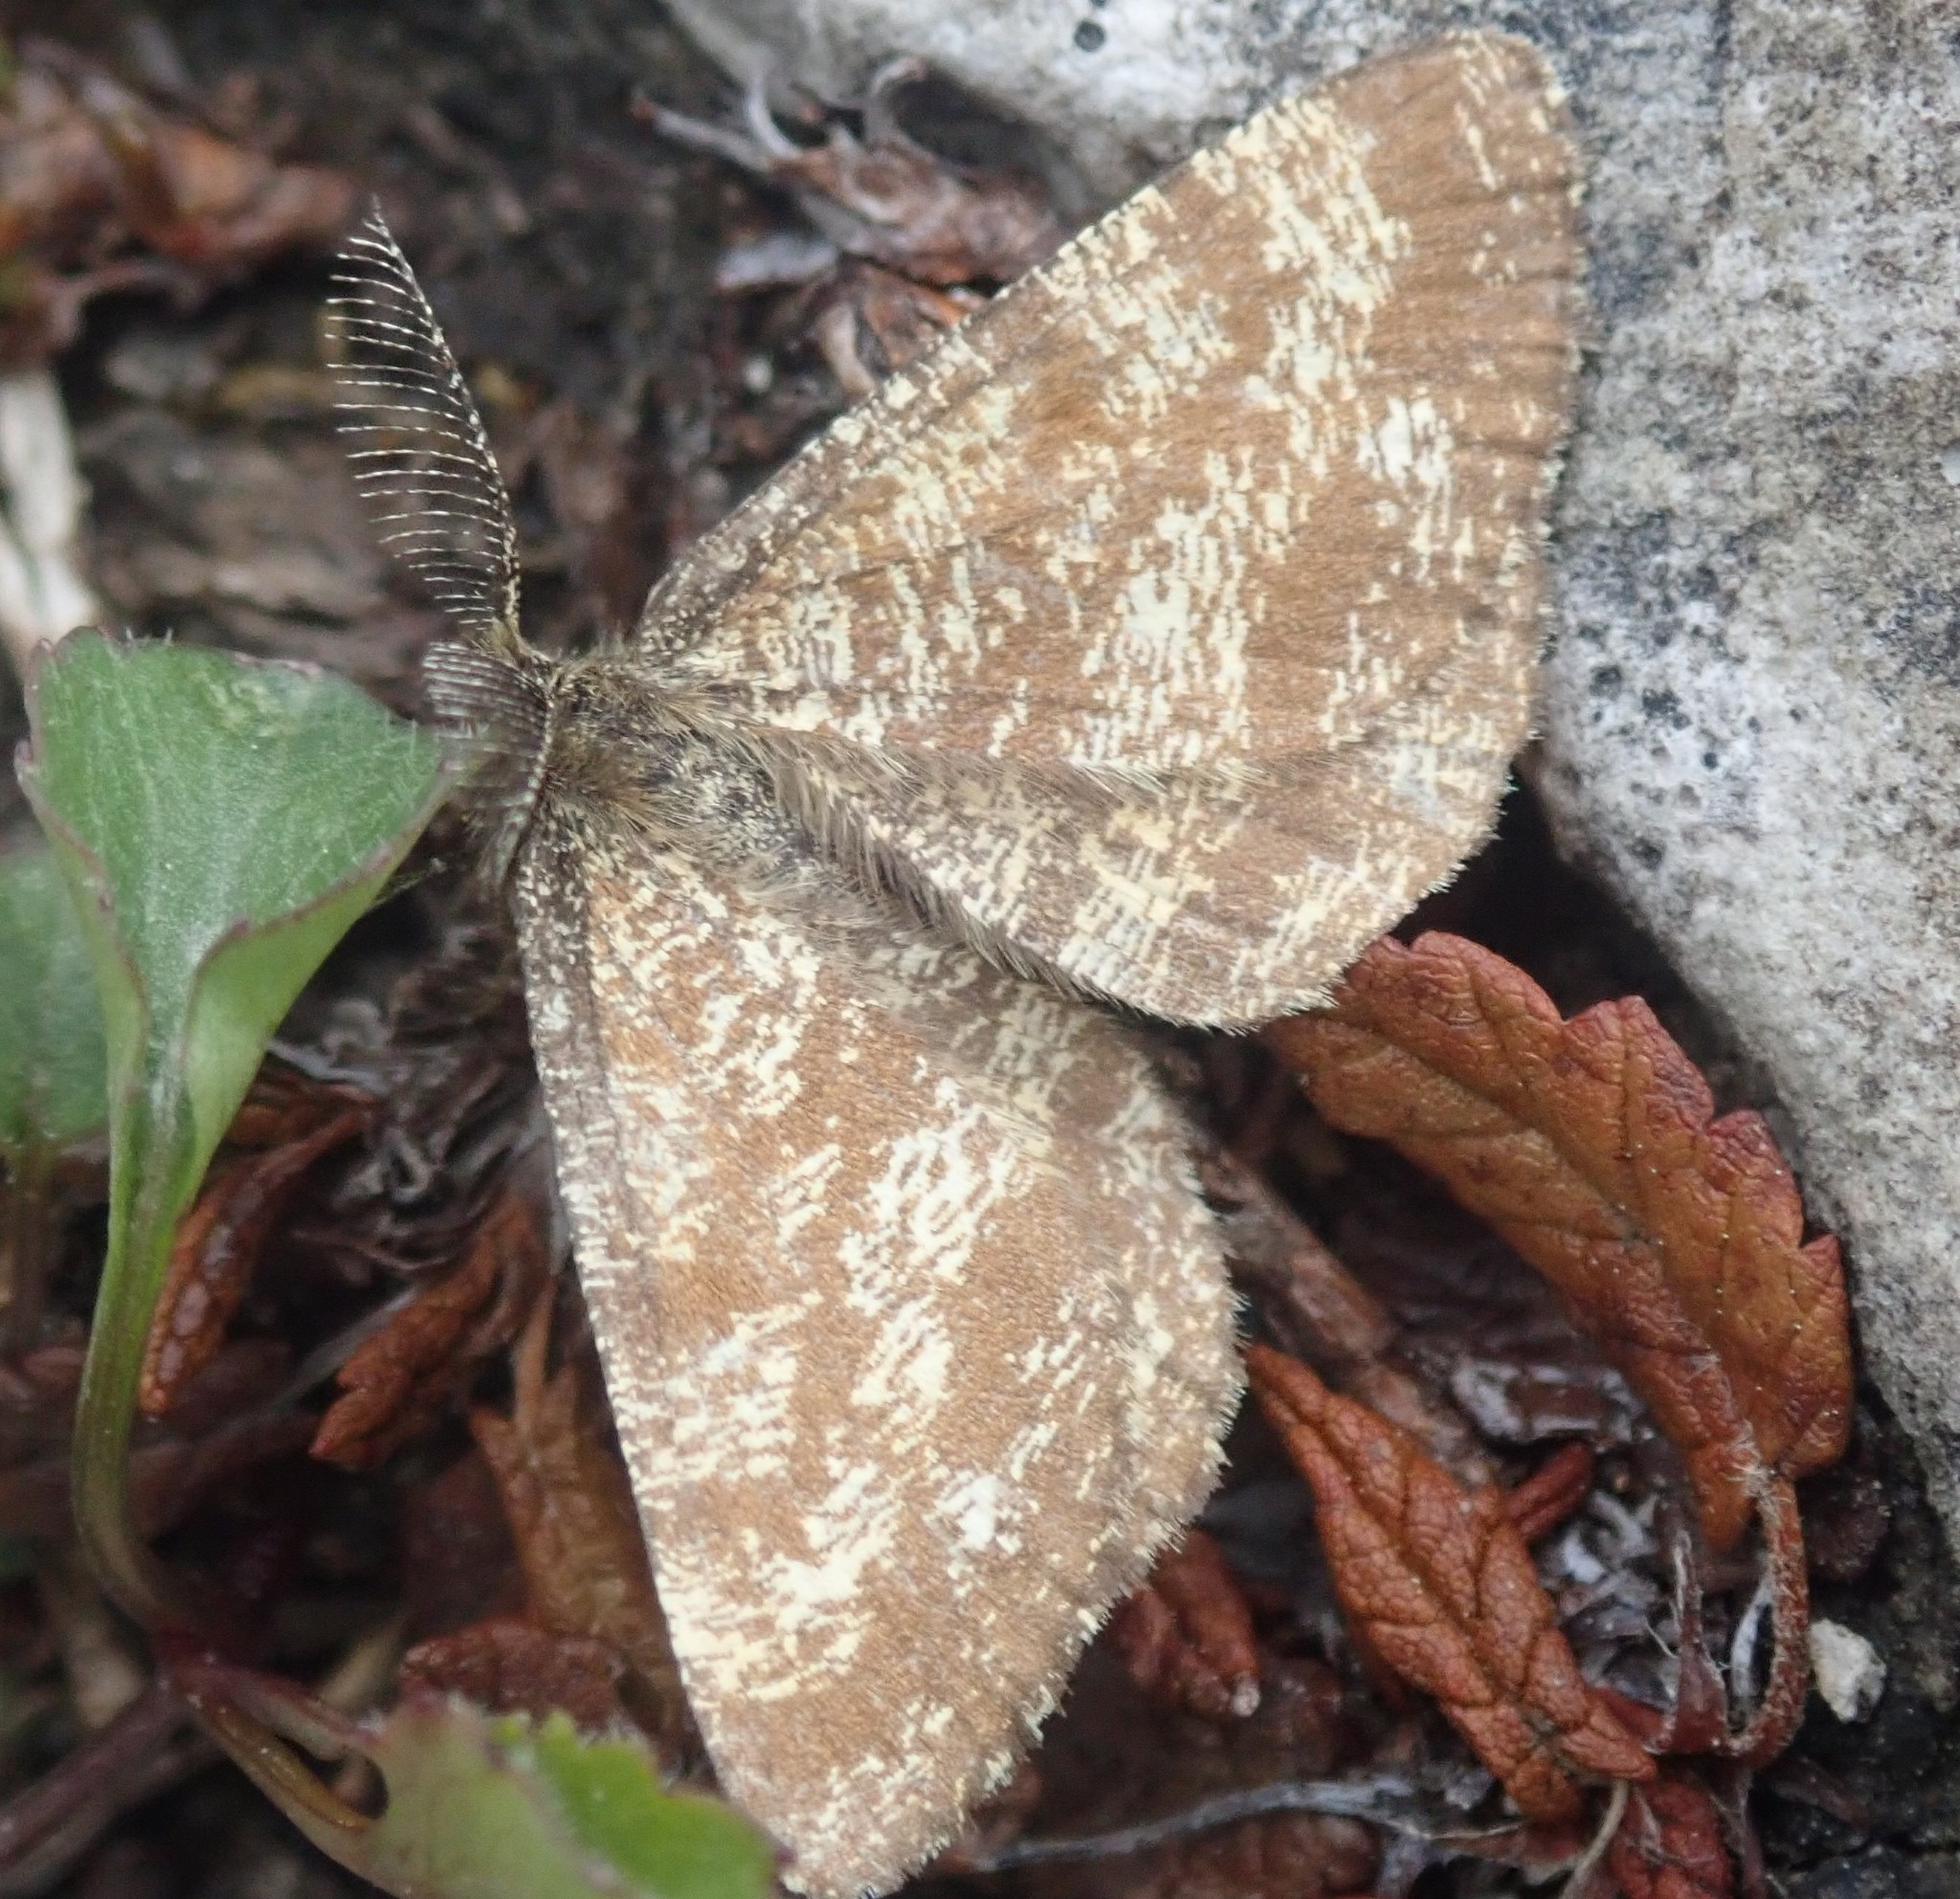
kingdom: Animalia
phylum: Arthropoda
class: Insecta
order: Lepidoptera
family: Geometridae
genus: Ematurga
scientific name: Ematurga atomaria
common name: Common heath
